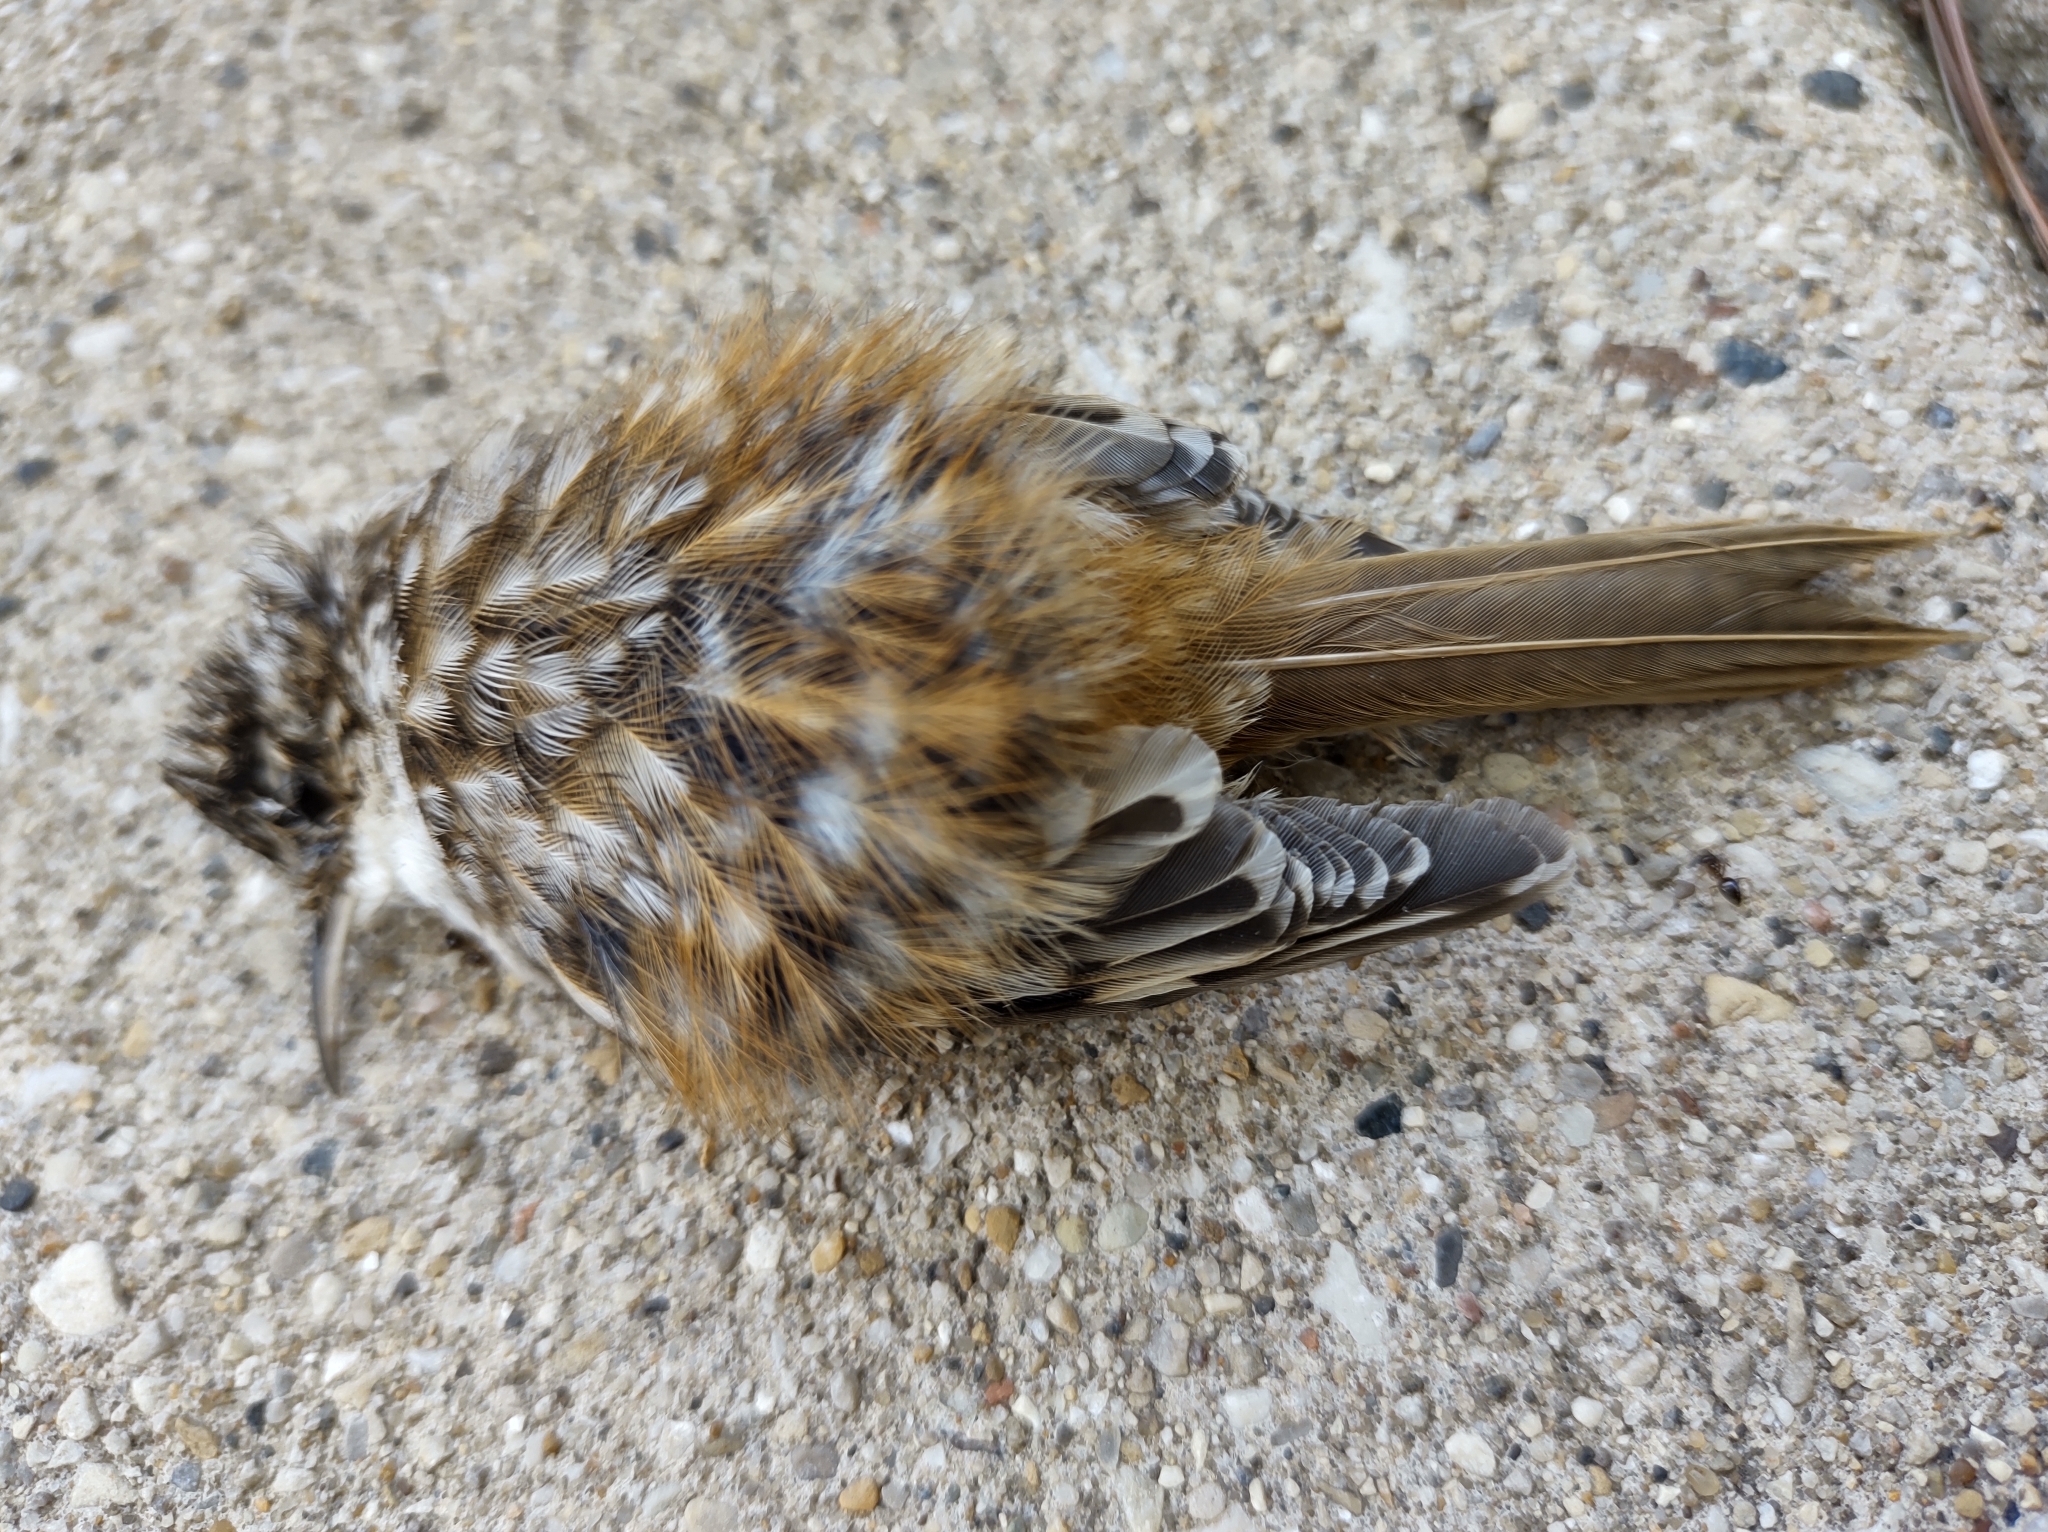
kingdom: Animalia
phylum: Chordata
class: Aves
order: Passeriformes
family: Certhiidae
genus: Certhia
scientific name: Certhia americana
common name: Brown creeper
